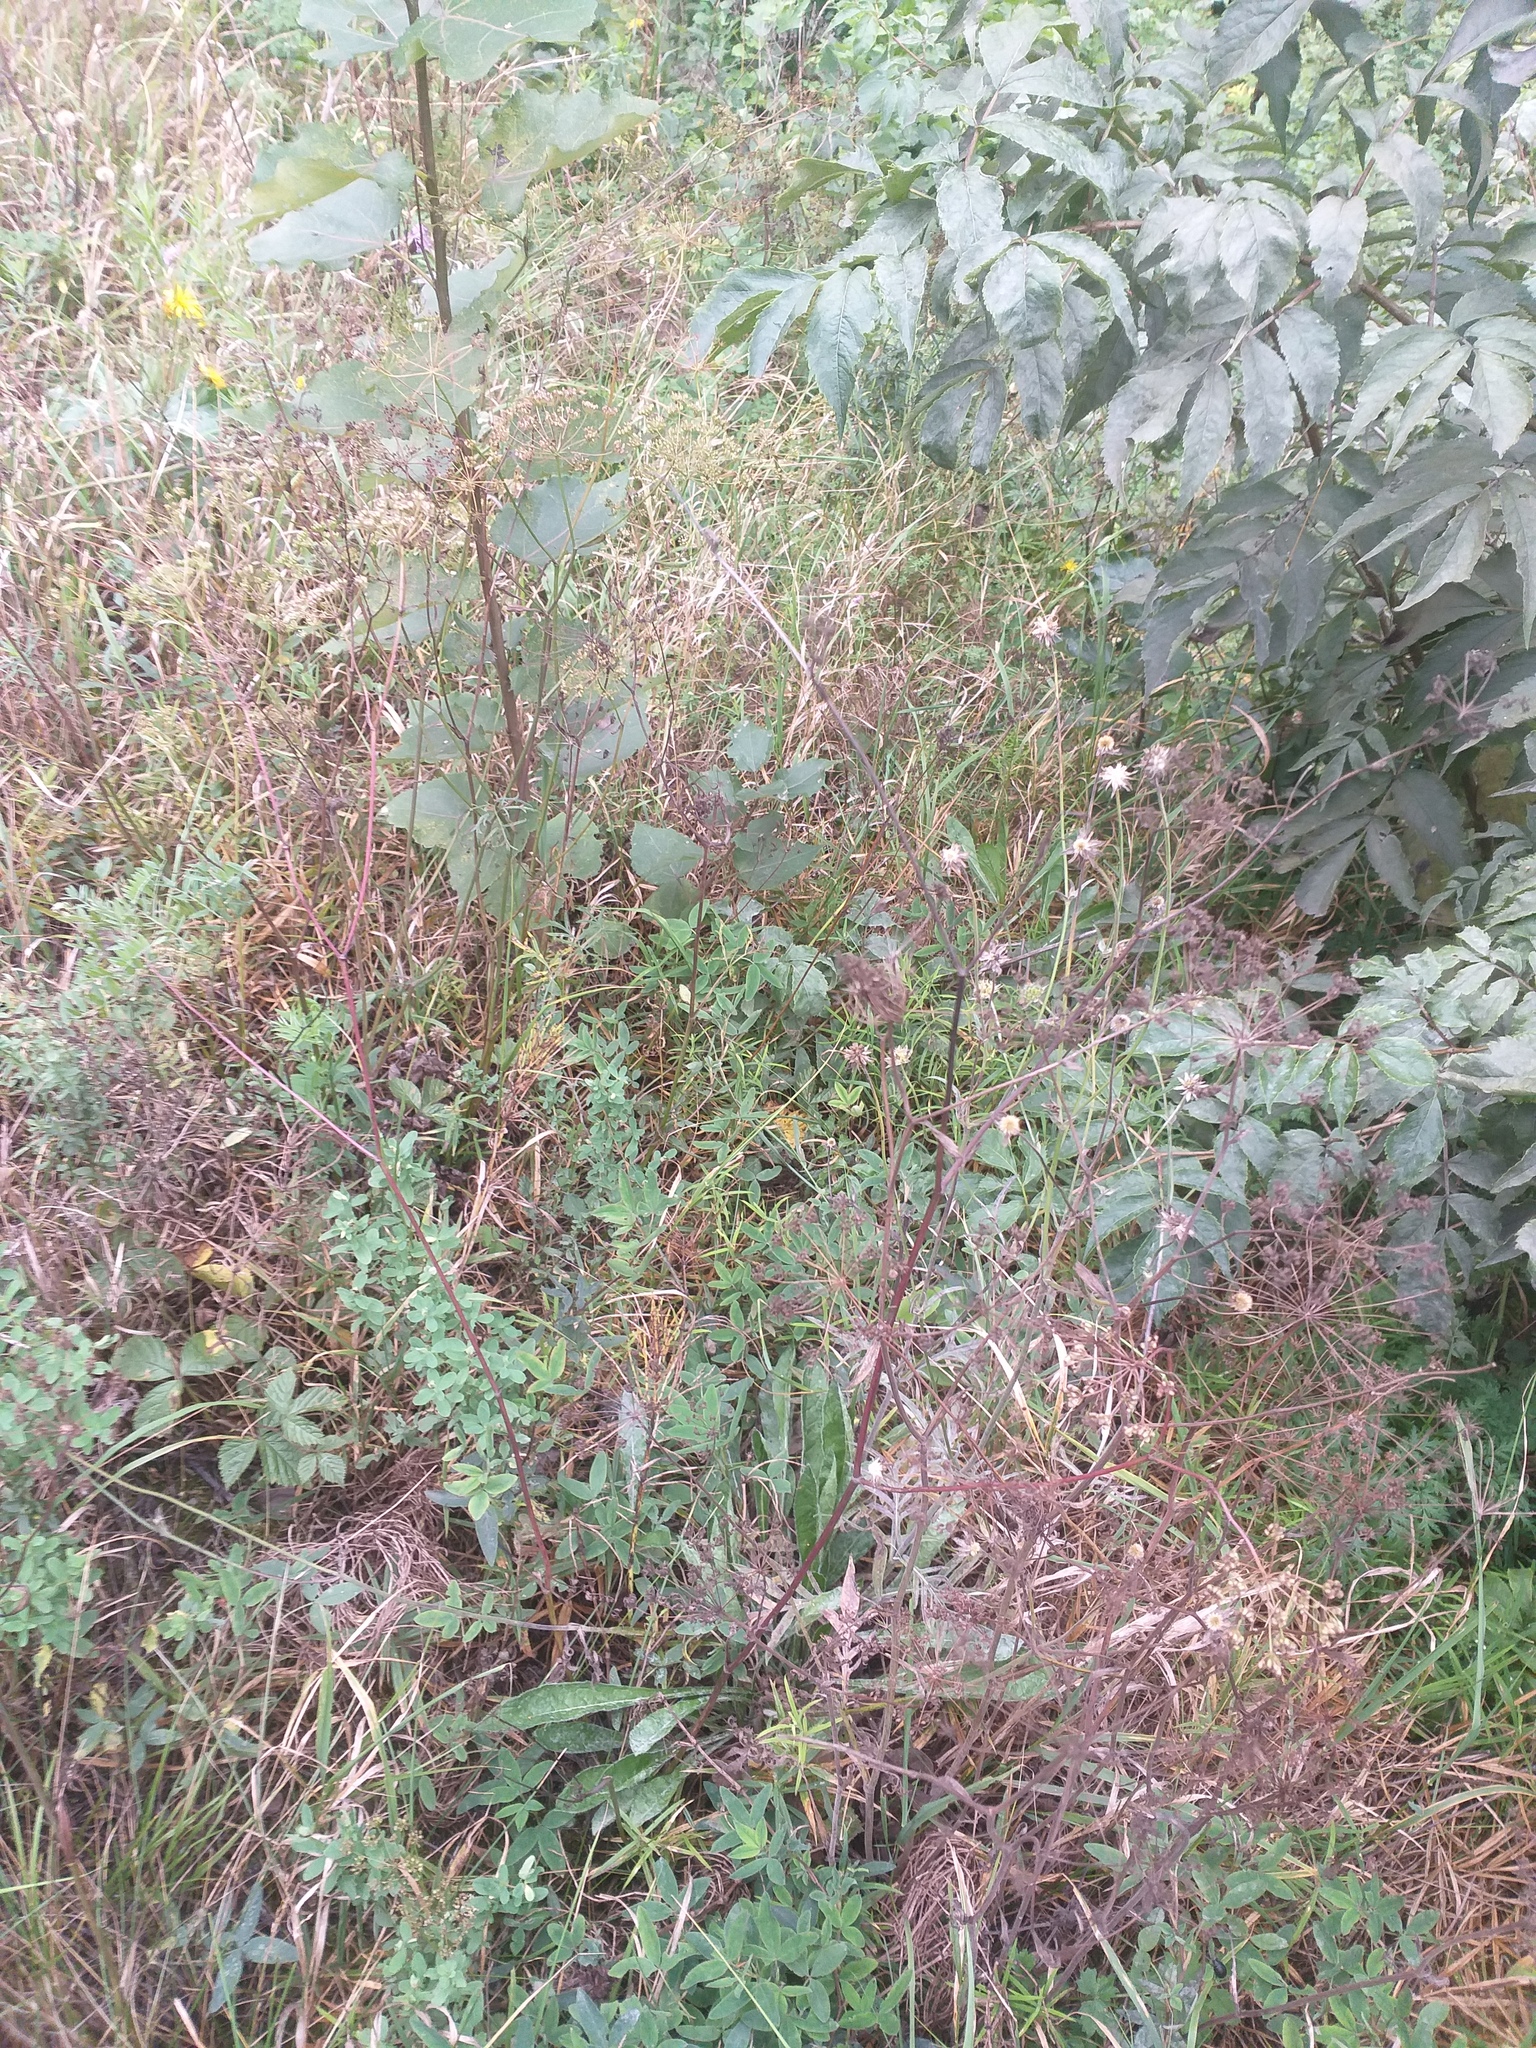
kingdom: Plantae
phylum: Tracheophyta
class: Magnoliopsida
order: Dipsacales
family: Caprifoliaceae
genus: Knautia
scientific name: Knautia arvensis
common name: Field scabiosa
